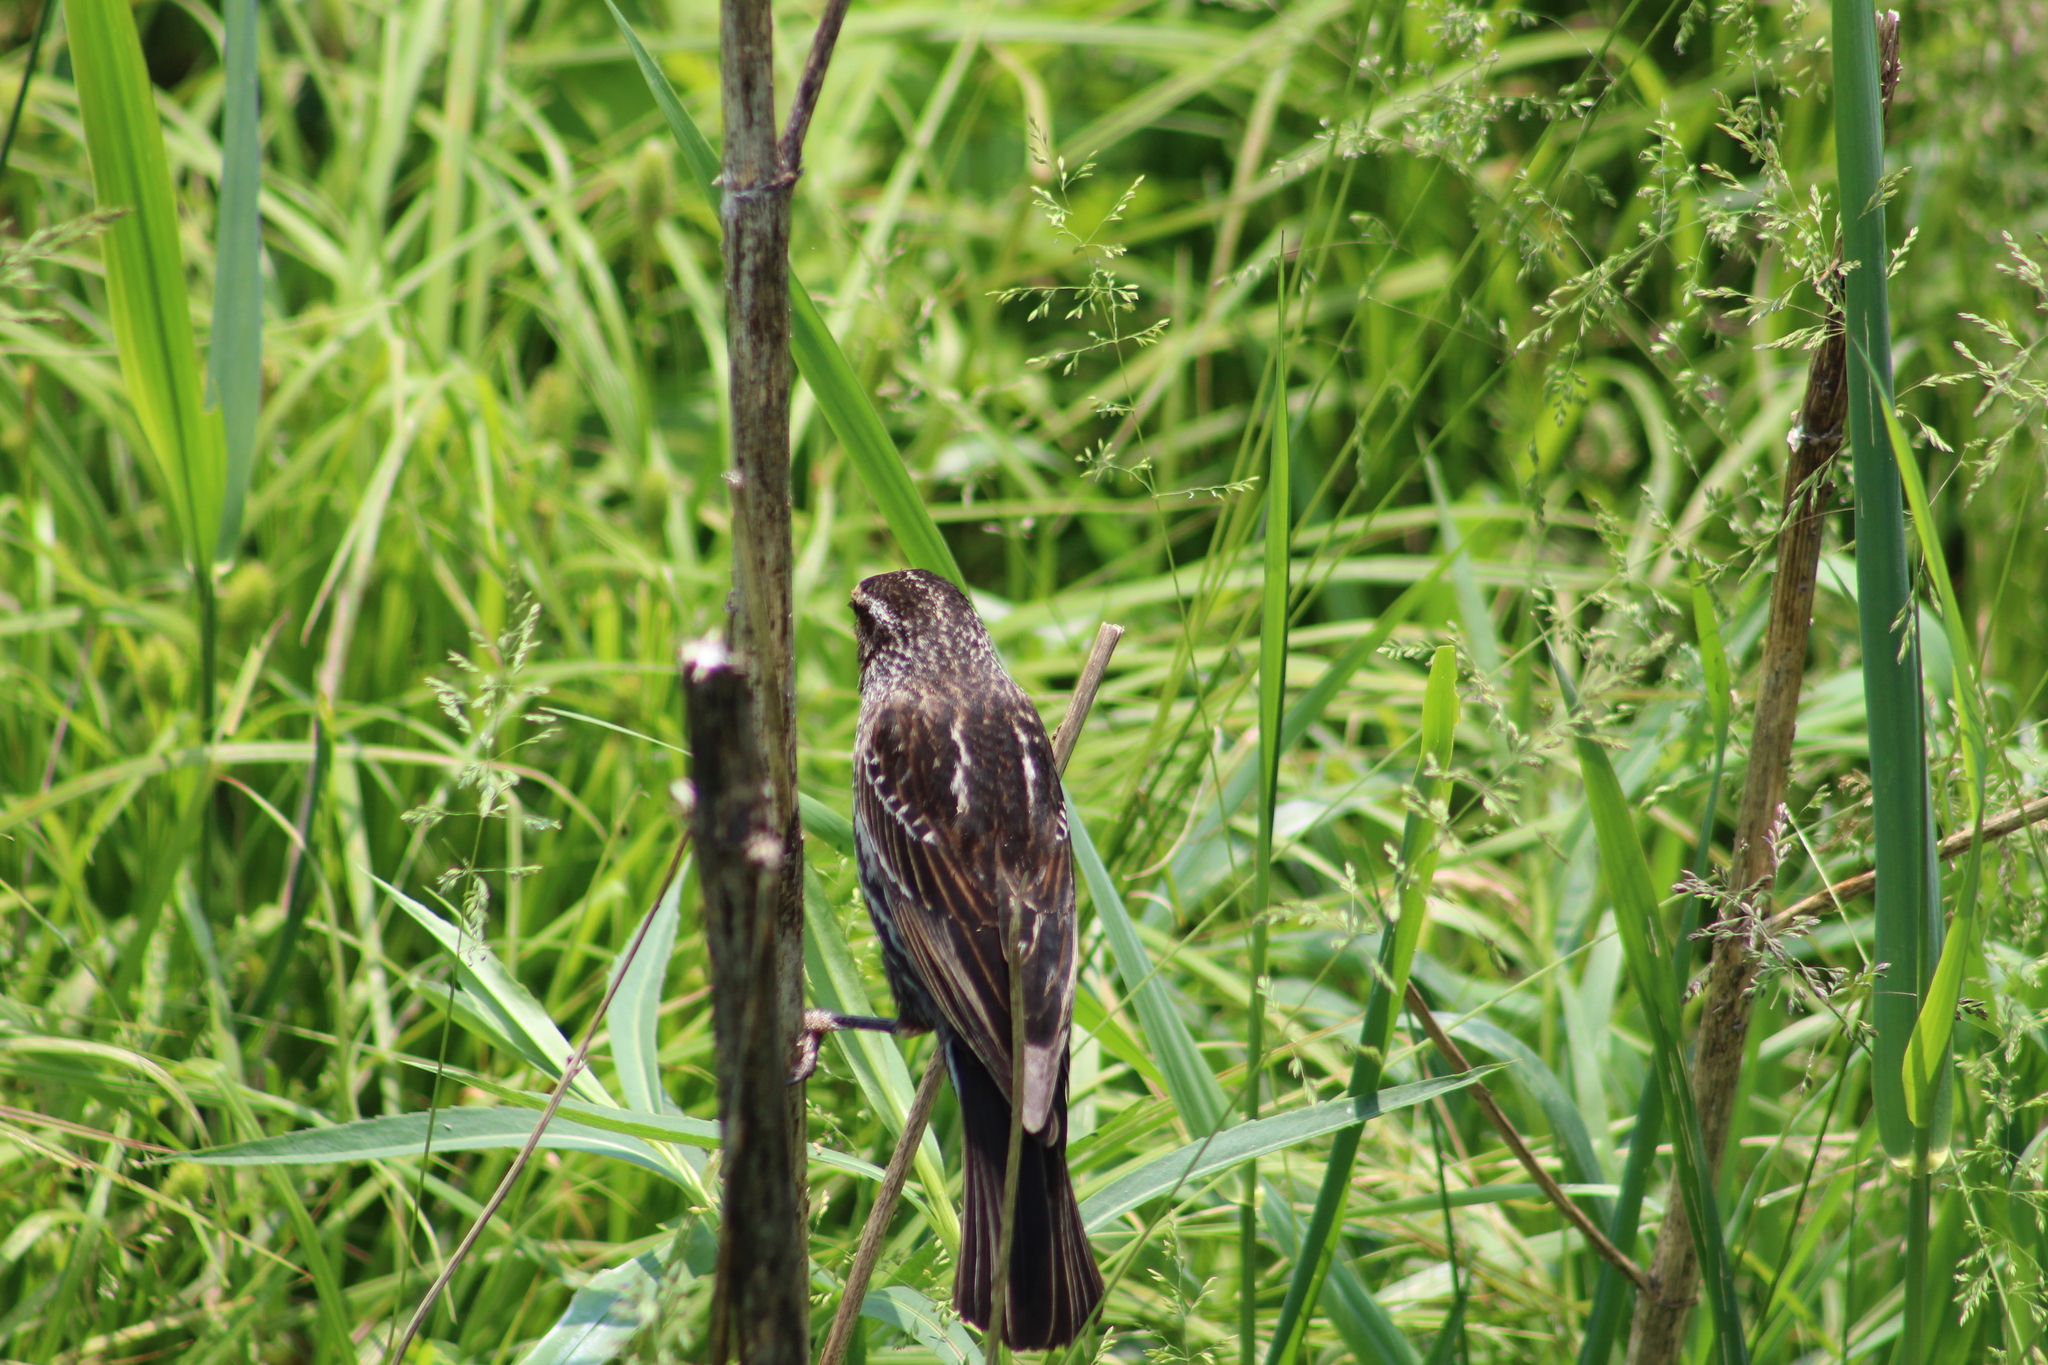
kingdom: Animalia
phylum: Chordata
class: Aves
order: Passeriformes
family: Icteridae
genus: Agelaius
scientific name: Agelaius phoeniceus
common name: Red-winged blackbird
